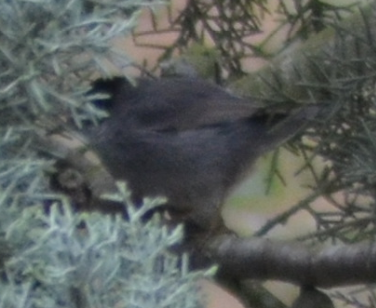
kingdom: Animalia
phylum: Chordata
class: Aves
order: Passeriformes
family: Sylviidae
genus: Curruca
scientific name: Curruca melanocephala
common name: Sardinian warbler
